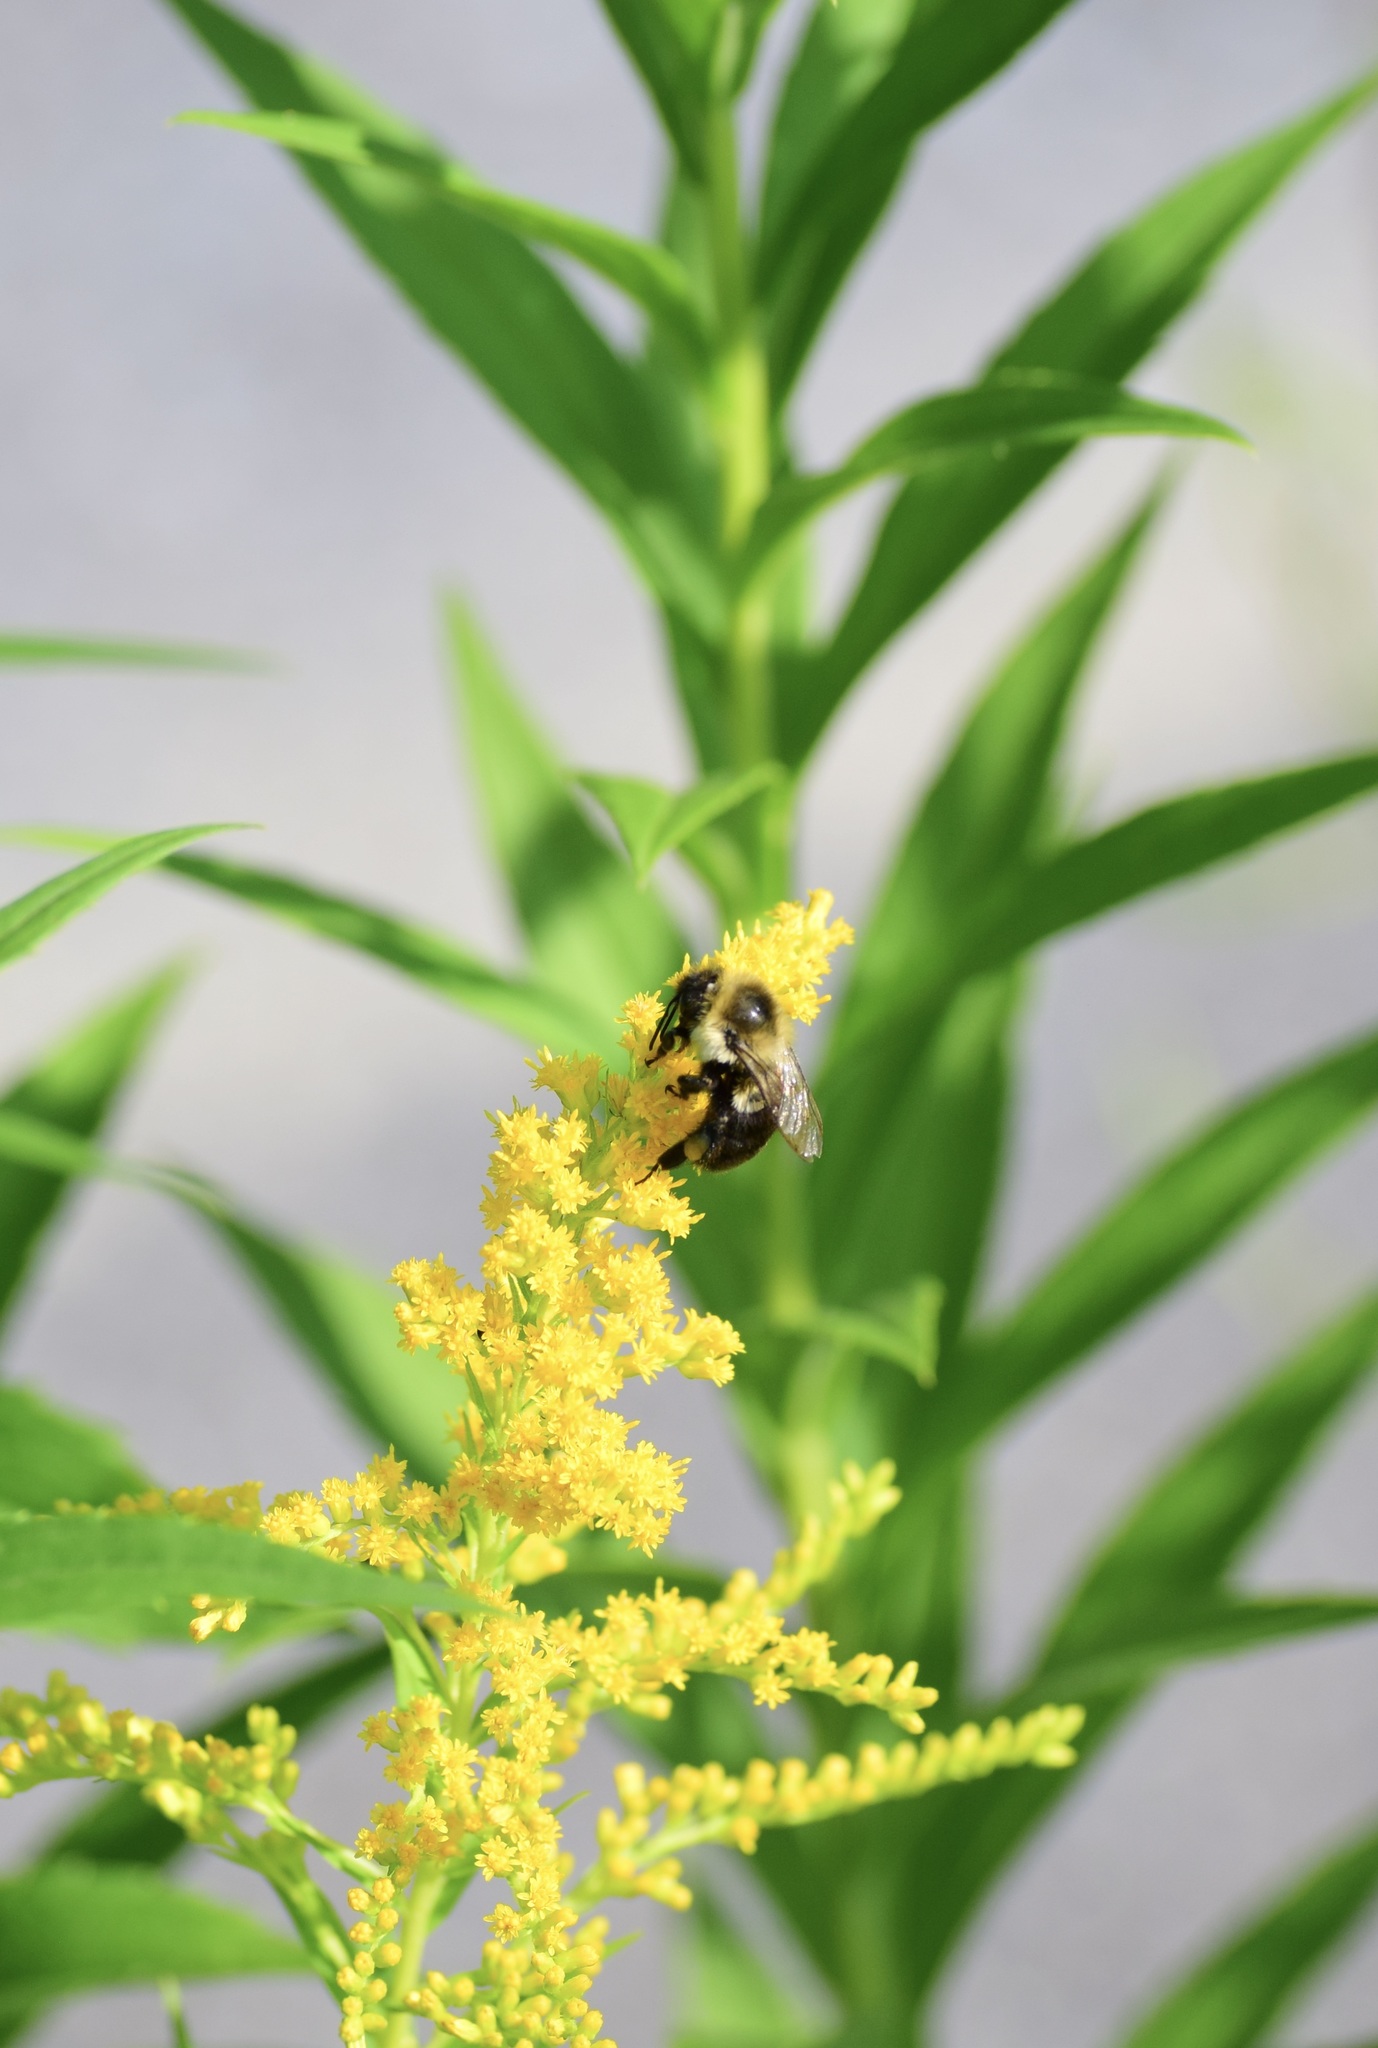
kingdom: Animalia
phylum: Arthropoda
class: Insecta
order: Hymenoptera
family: Apidae
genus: Bombus
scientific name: Bombus impatiens
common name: Common eastern bumble bee
